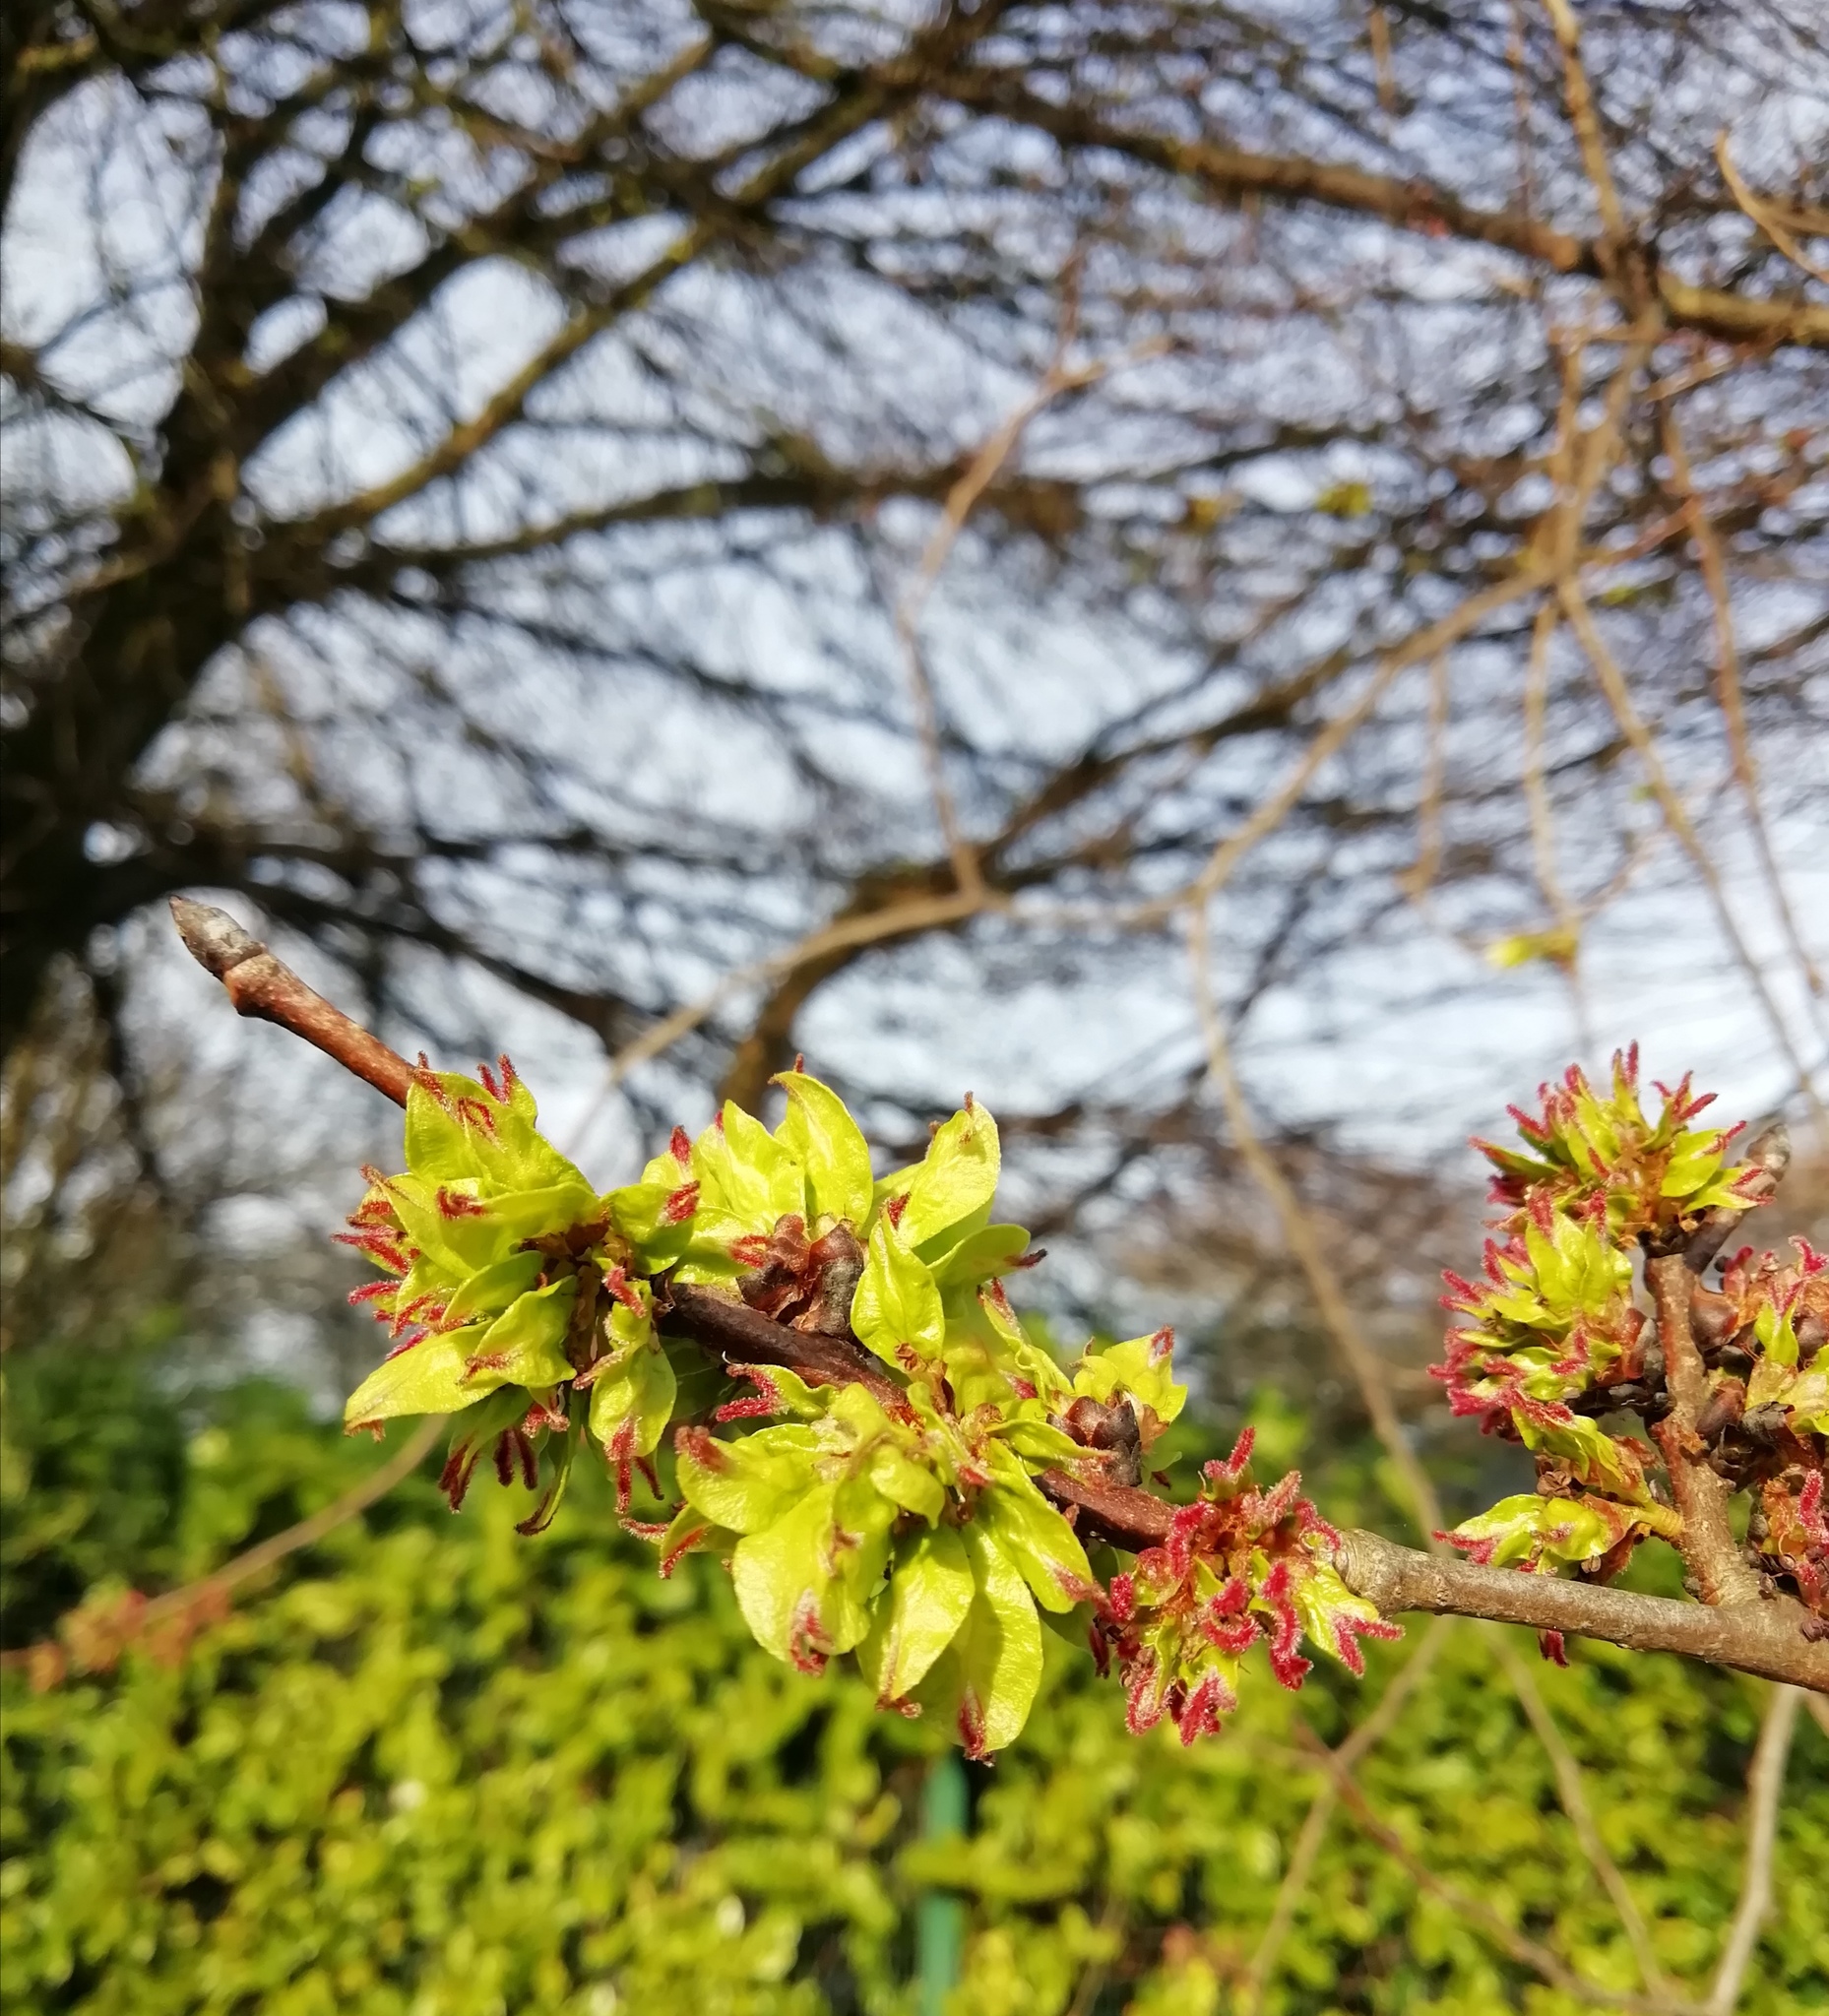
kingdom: Plantae
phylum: Tracheophyta
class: Magnoliopsida
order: Rosales
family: Ulmaceae
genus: Ulmus
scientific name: Ulmus glabra
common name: Wych elm
